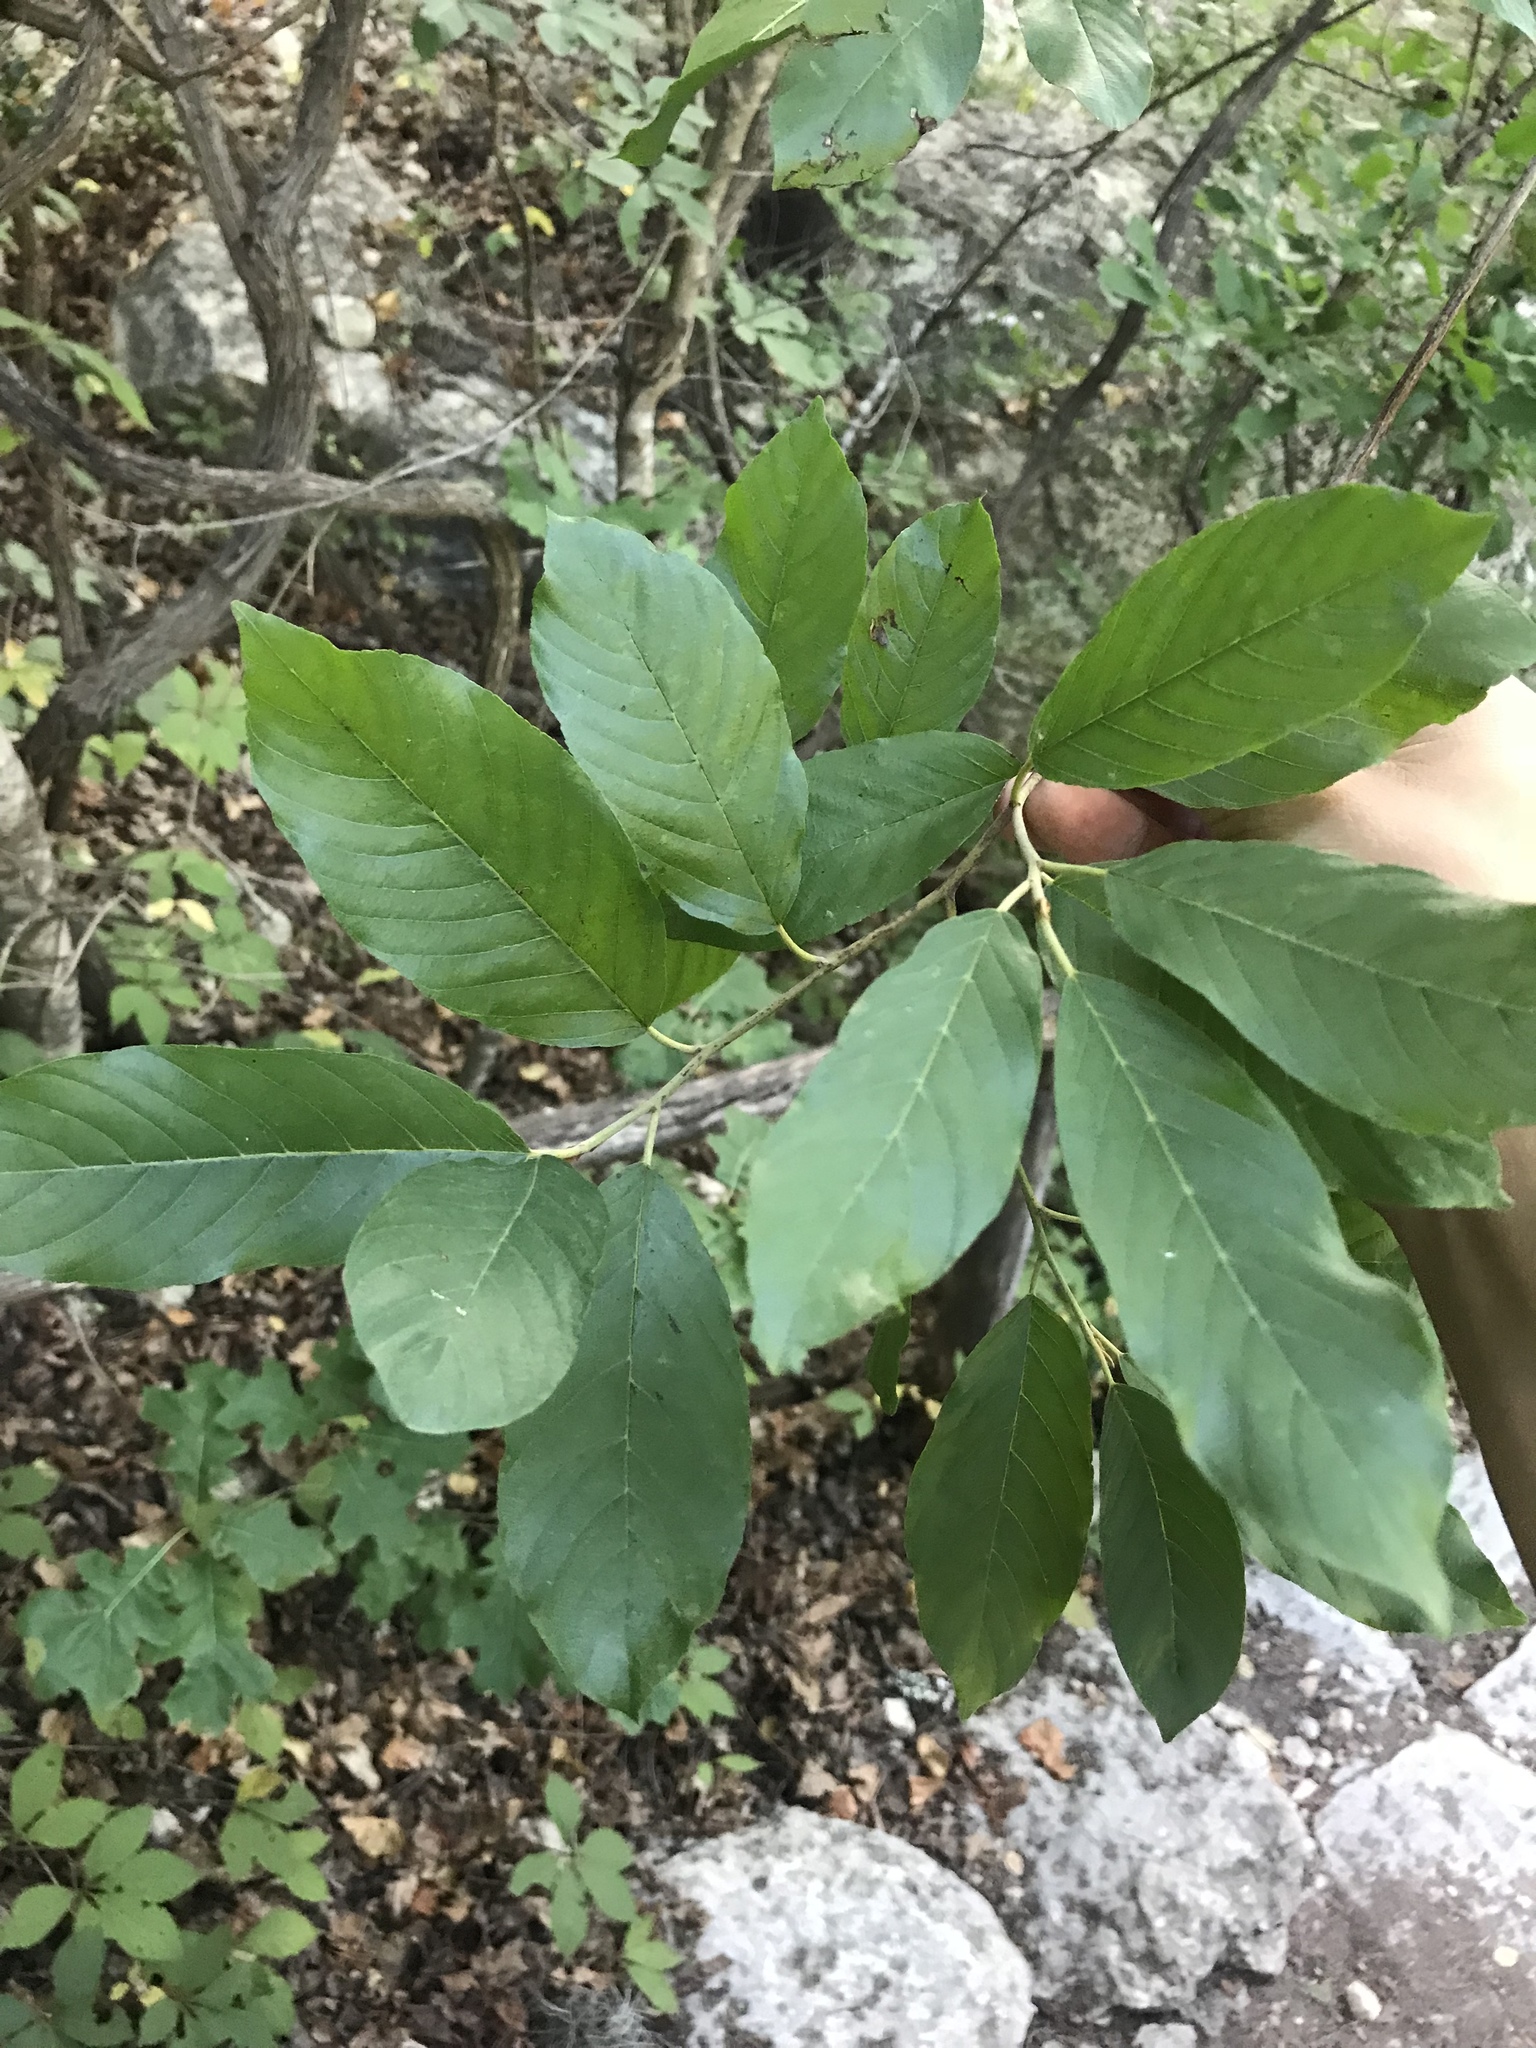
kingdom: Plantae
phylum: Tracheophyta
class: Magnoliopsida
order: Rosales
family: Rhamnaceae
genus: Frangula
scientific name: Frangula caroliniana
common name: Carolina buckthorn
